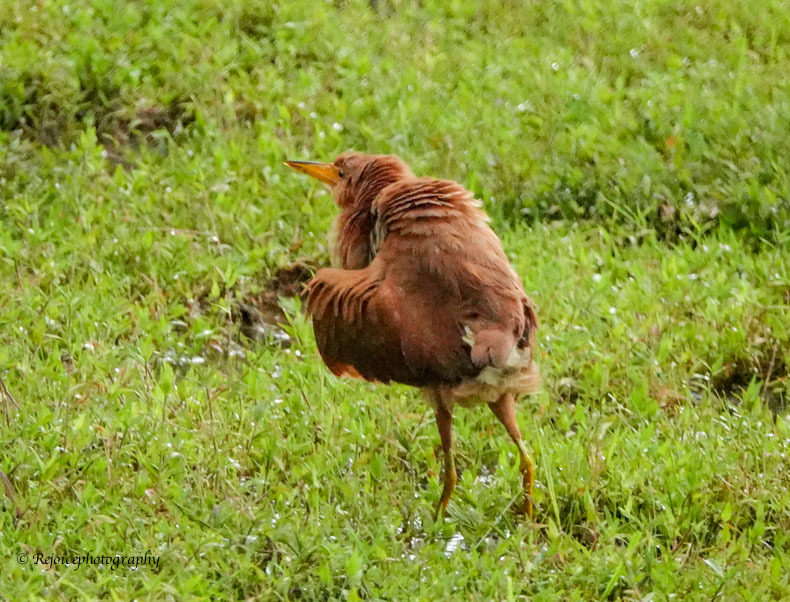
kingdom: Animalia
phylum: Chordata
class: Aves
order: Pelecaniformes
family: Ardeidae
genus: Ixobrychus
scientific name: Ixobrychus cinnamomeus
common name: Cinnamon bittern
